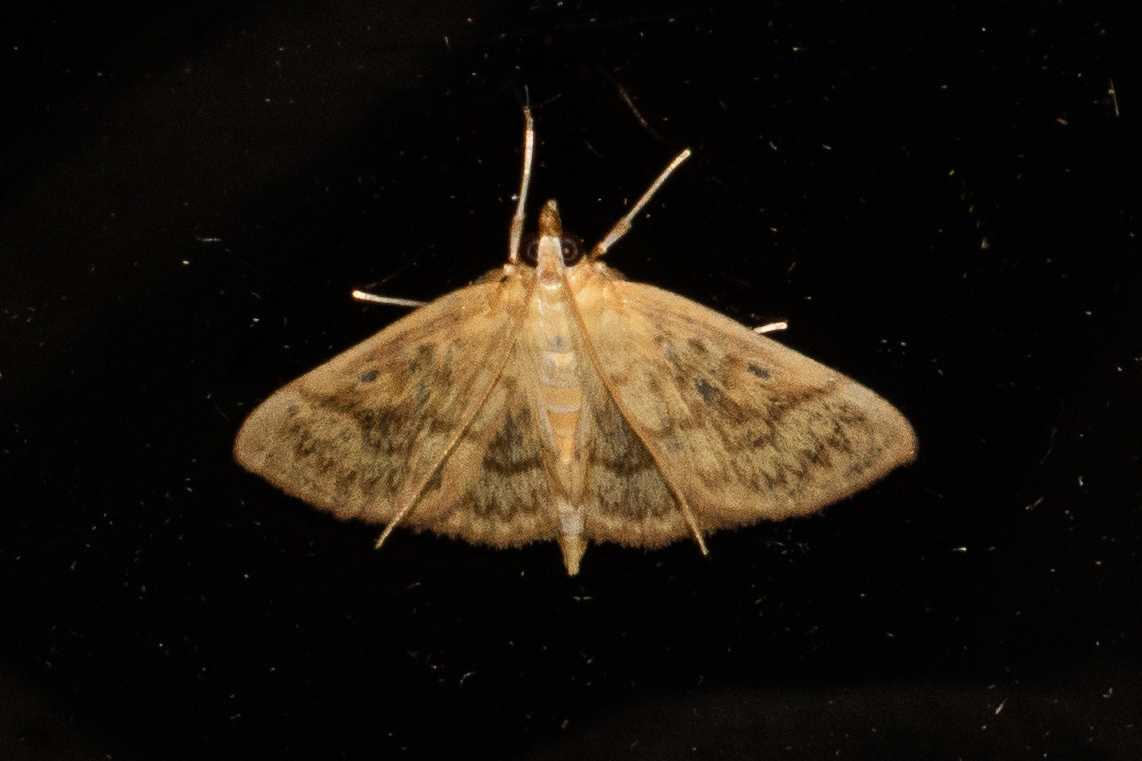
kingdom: Animalia
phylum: Arthropoda
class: Insecta
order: Lepidoptera
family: Crambidae
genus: Herpetogramma
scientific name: Herpetogramma pertextalis
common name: Bold-feathered grass moth
